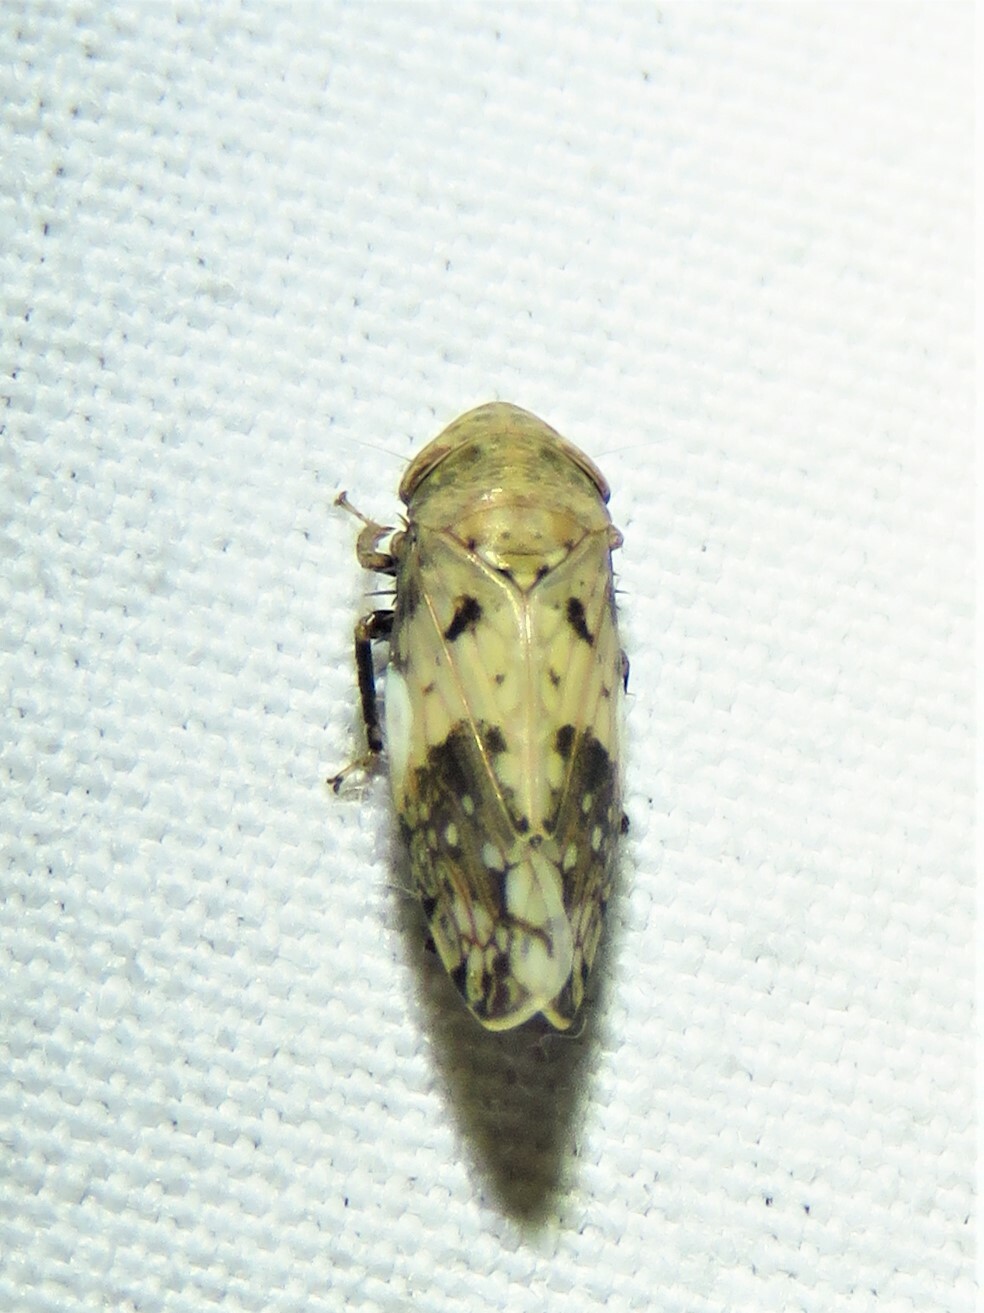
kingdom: Animalia
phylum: Arthropoda
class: Insecta
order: Hemiptera
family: Cicadellidae
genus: Menosoma
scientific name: Menosoma cinctum
